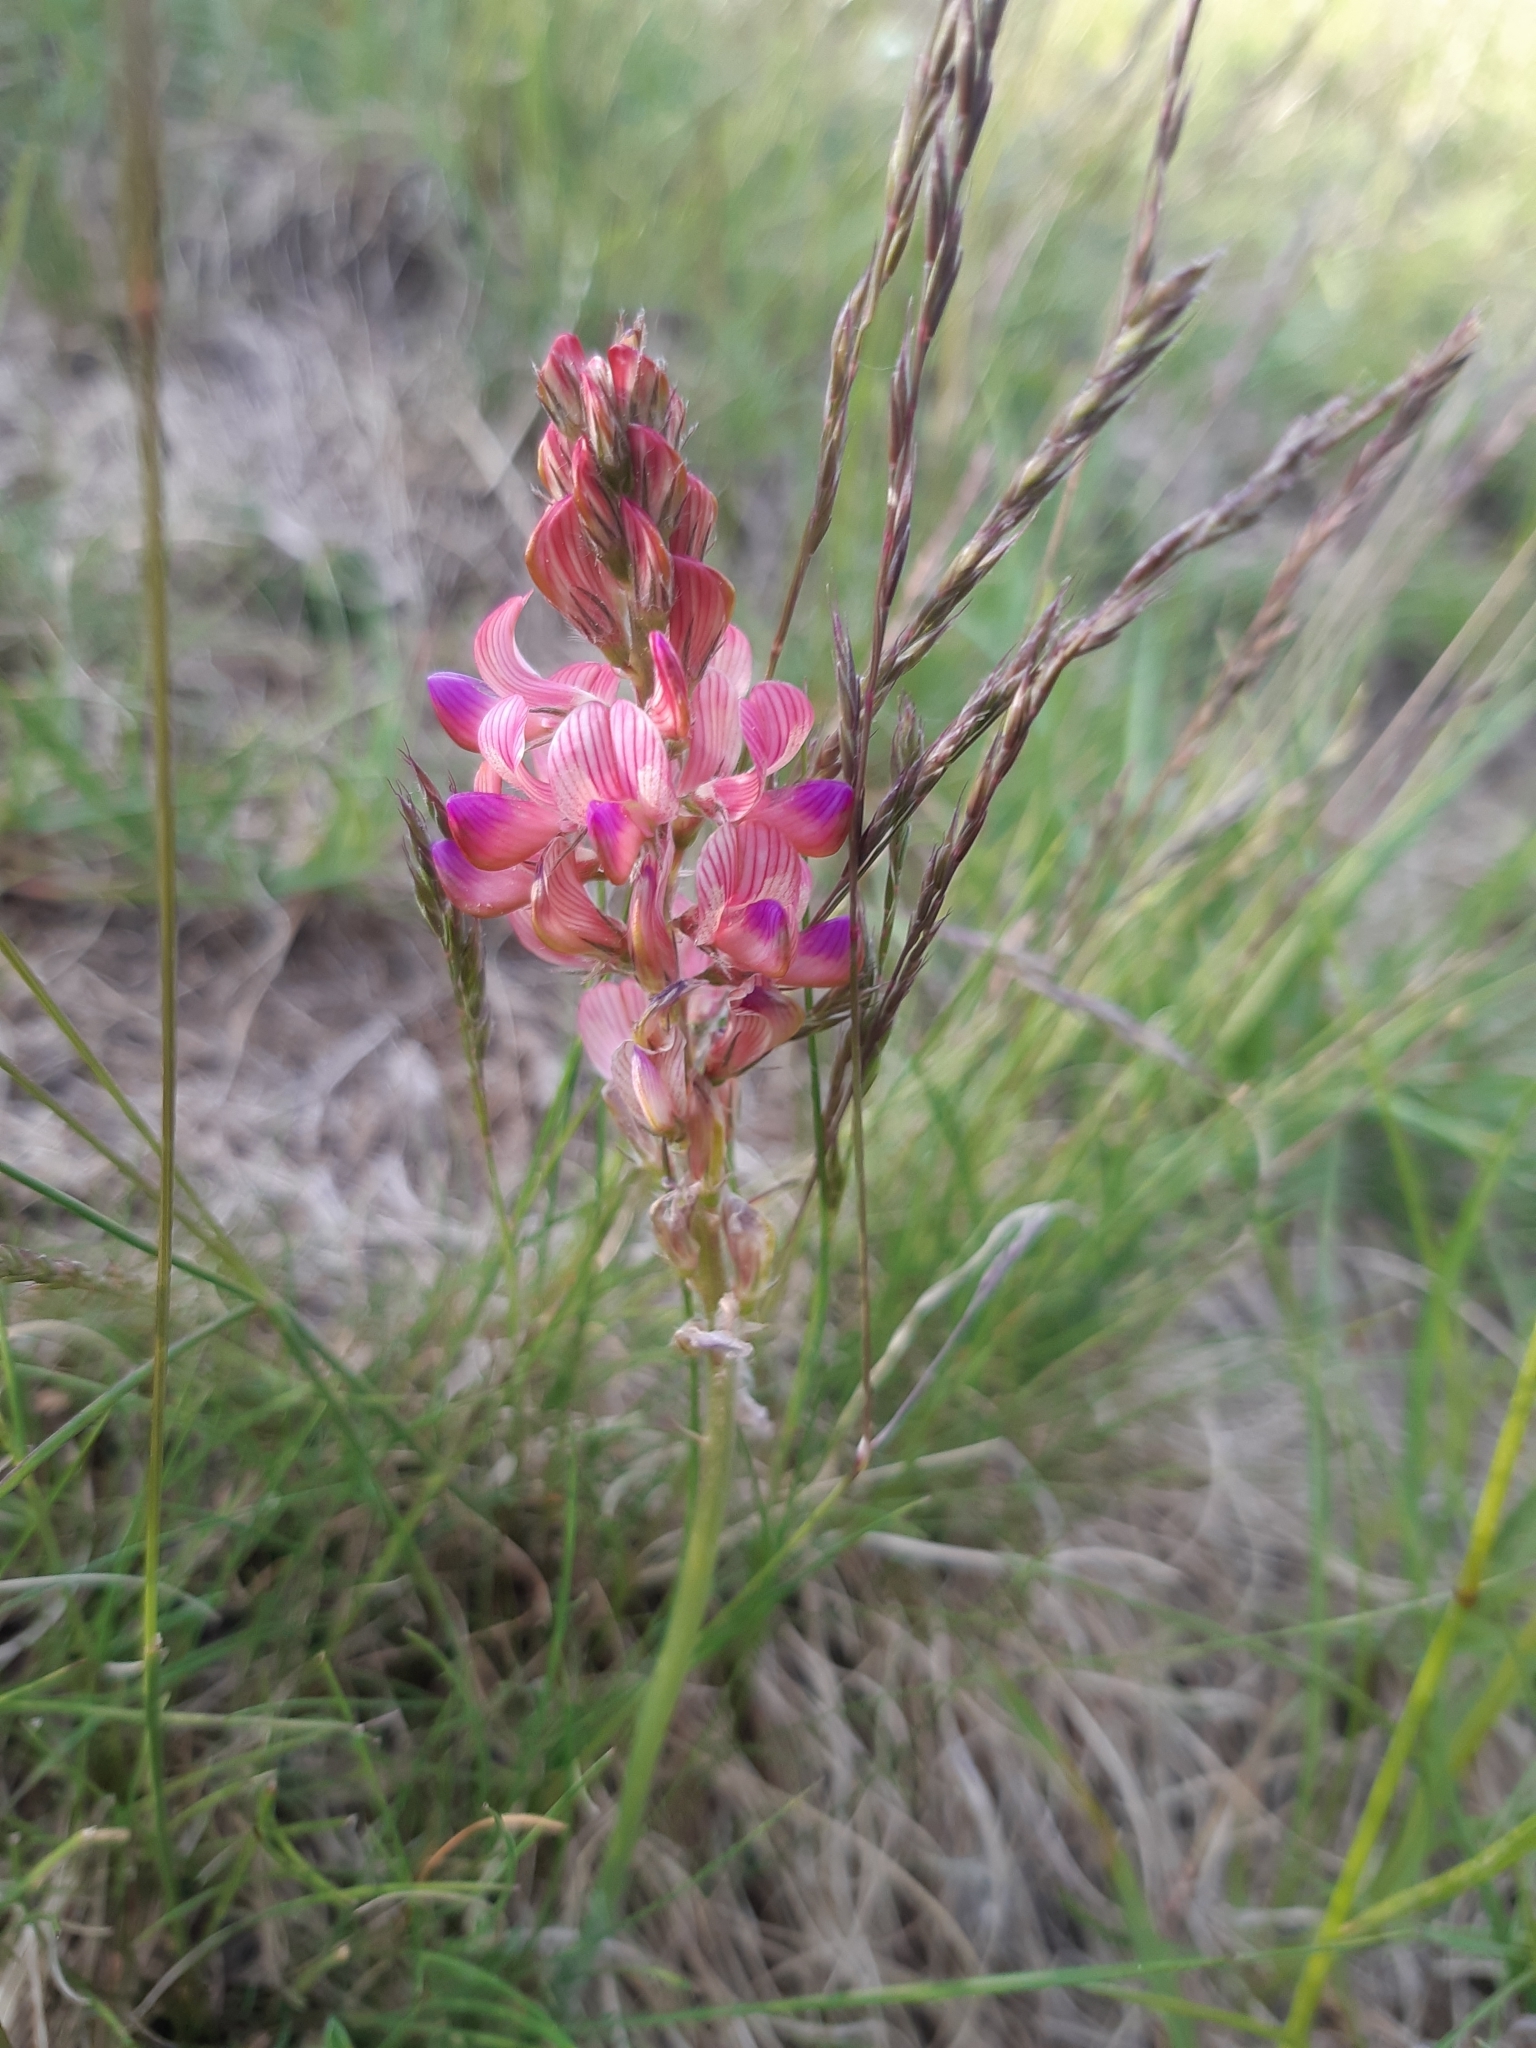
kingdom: Plantae
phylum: Tracheophyta
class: Magnoliopsida
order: Fabales
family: Fabaceae
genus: Onobrychis
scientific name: Onobrychis viciifolia
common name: Sainfoin
